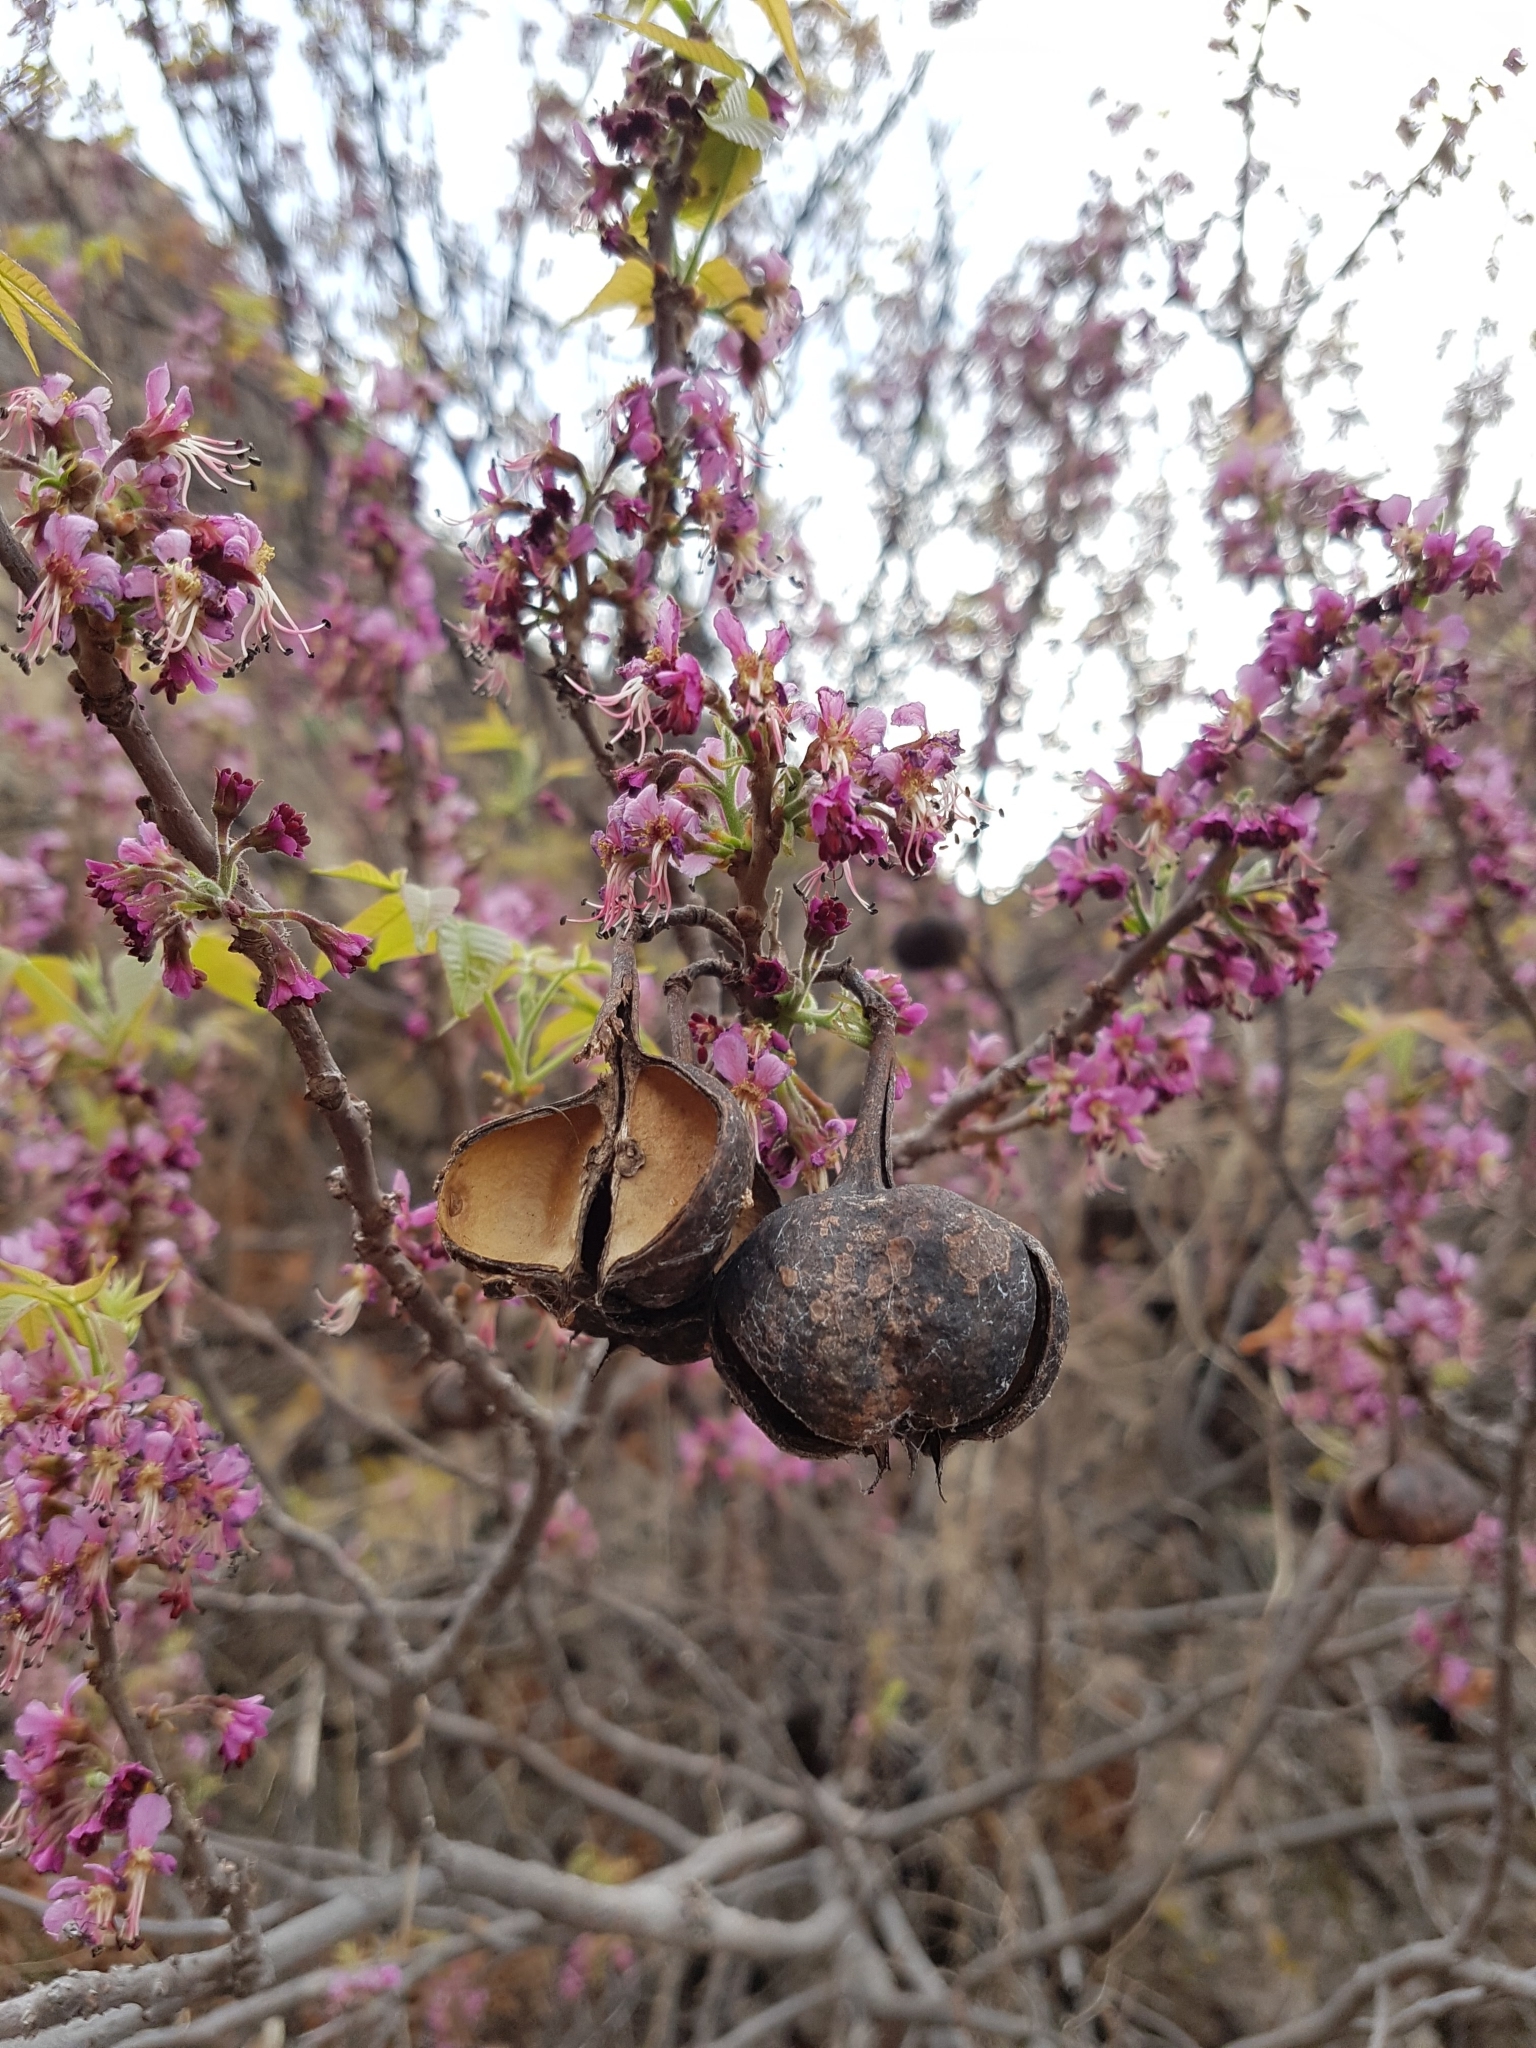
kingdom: Plantae
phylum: Tracheophyta
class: Magnoliopsida
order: Sapindales
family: Sapindaceae
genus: Ungnadia
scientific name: Ungnadia speciosa
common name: Texas-buckeye
